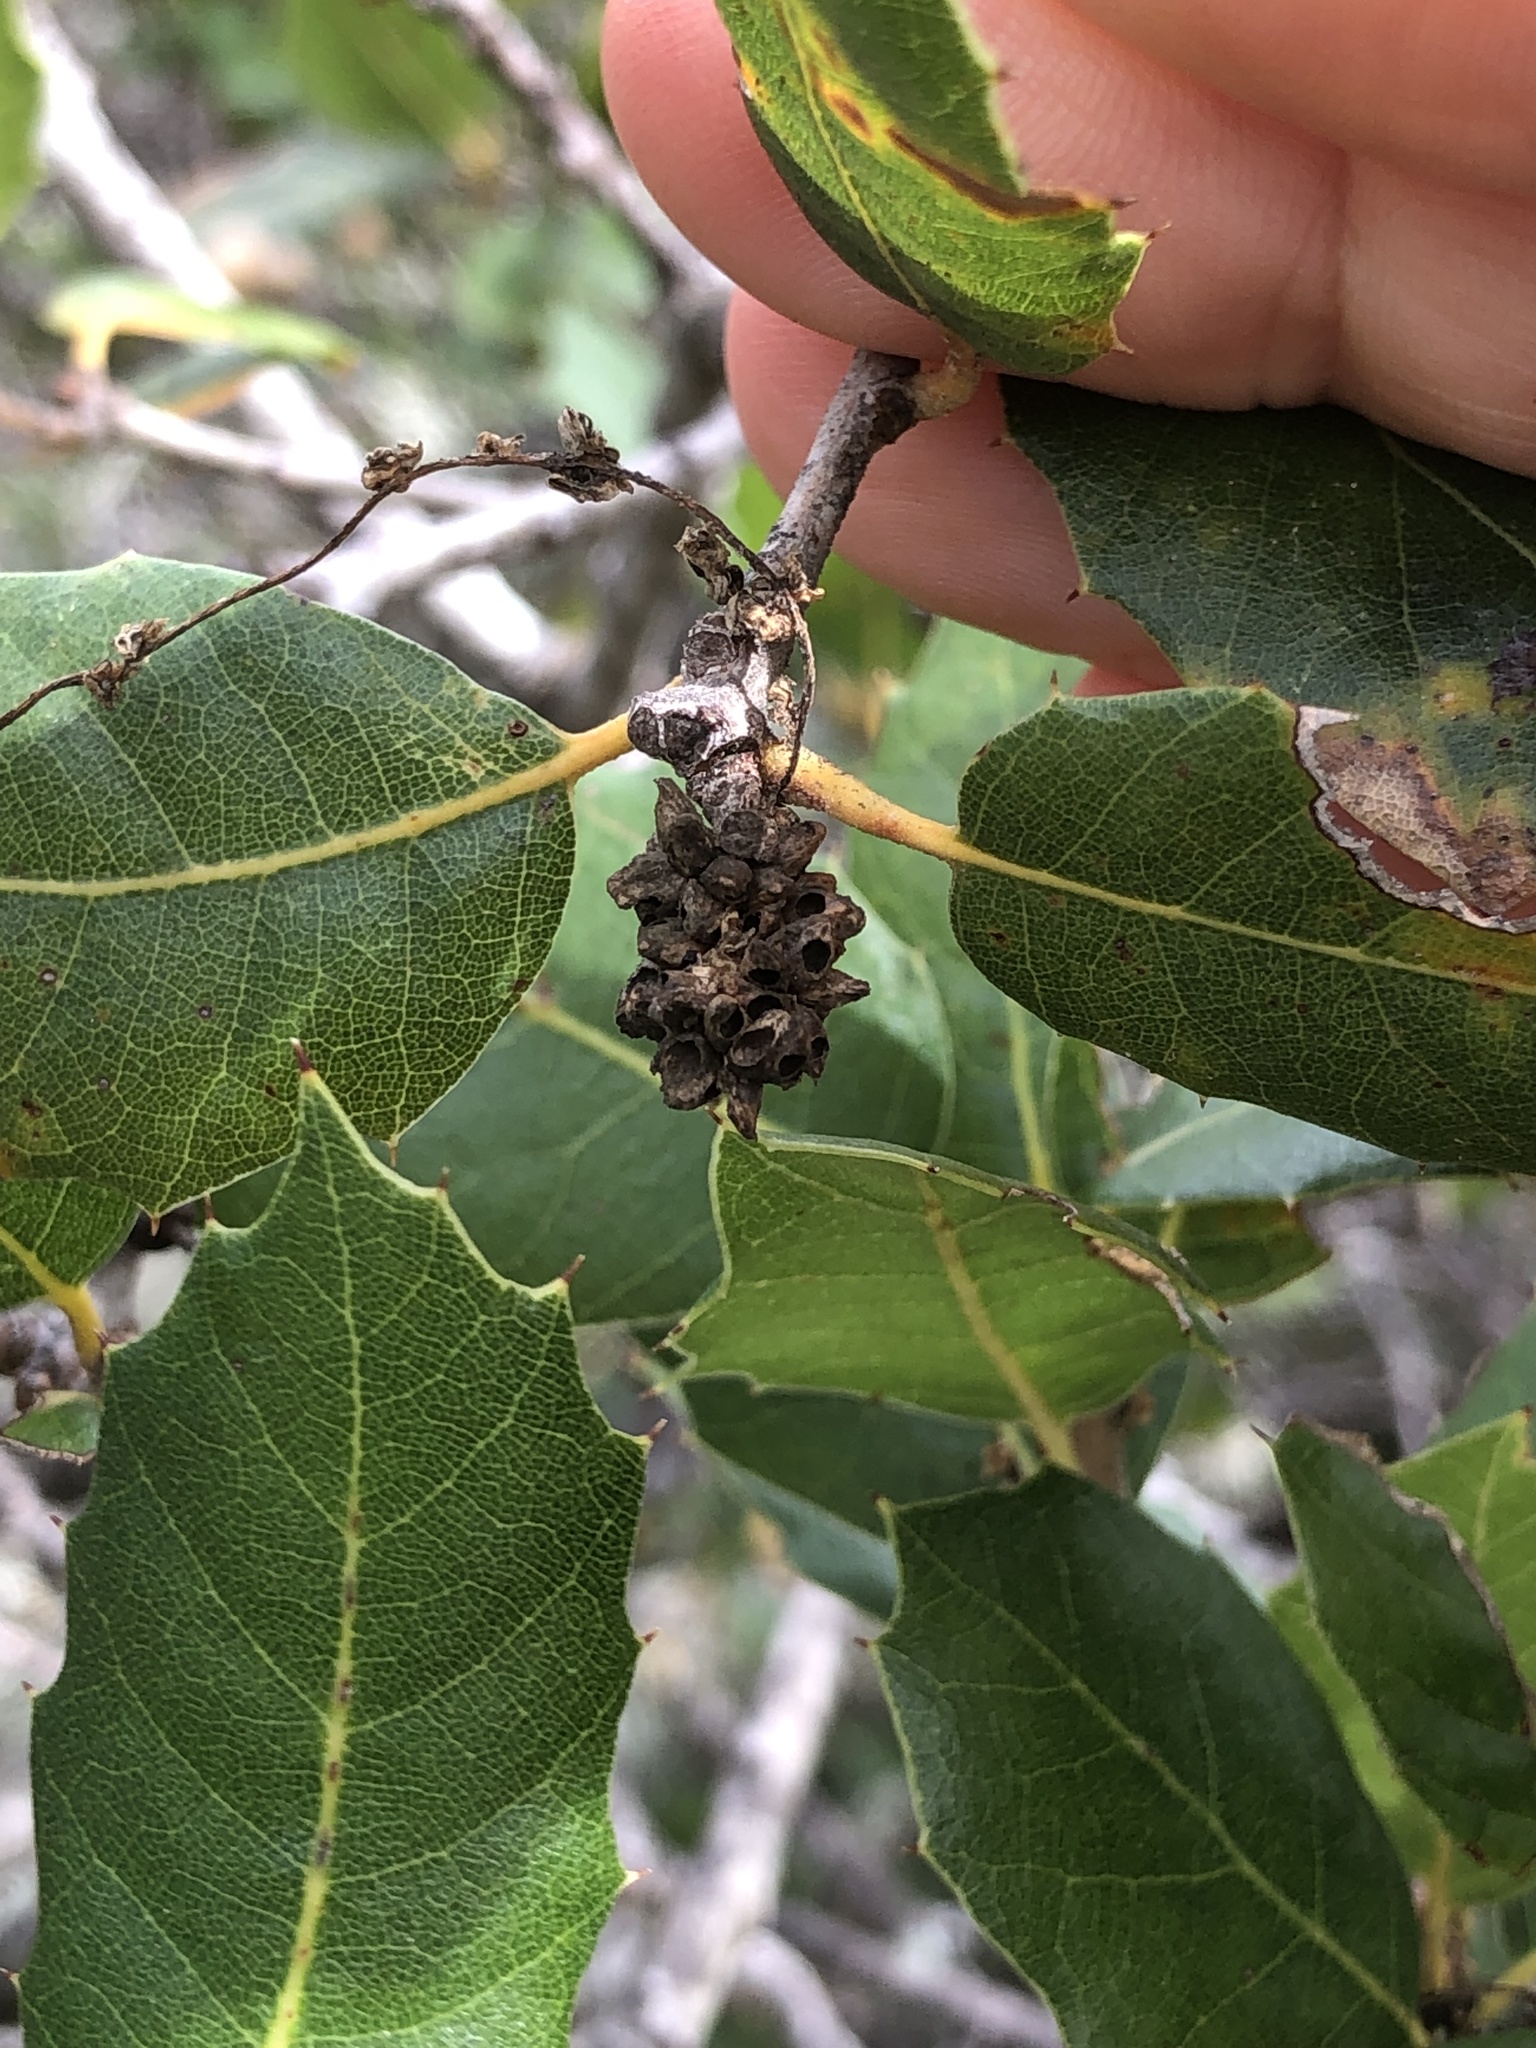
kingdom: Animalia
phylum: Arthropoda
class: Insecta
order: Hymenoptera
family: Cynipidae
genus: Callirhytis
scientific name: Callirhytis
